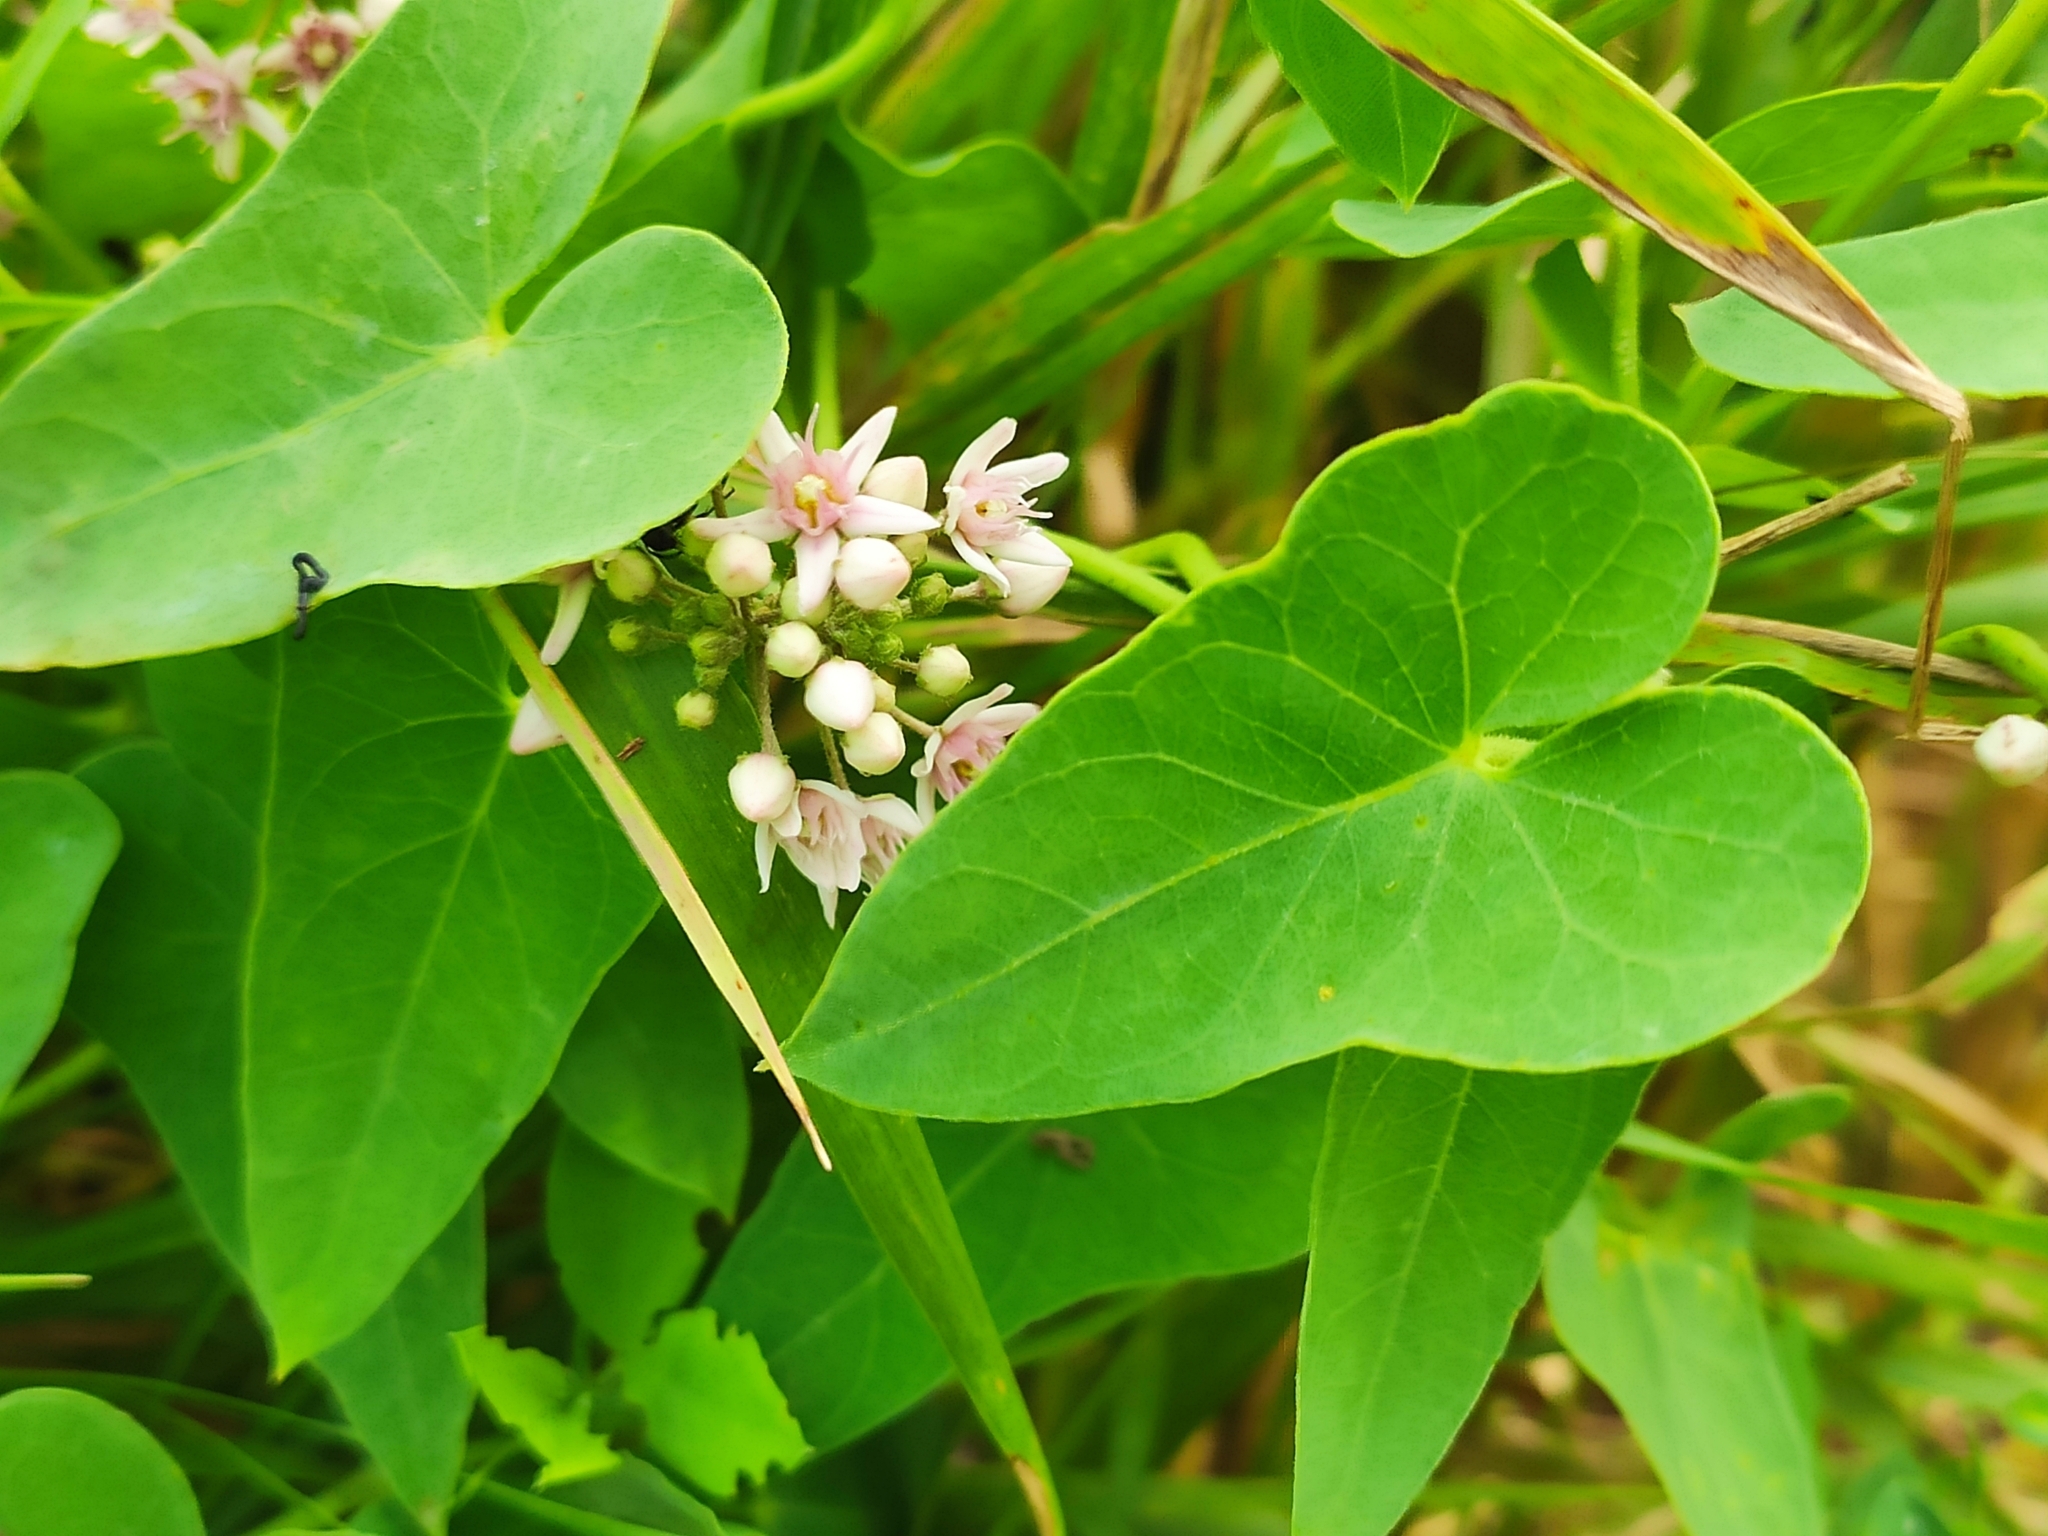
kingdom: Plantae
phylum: Tracheophyta
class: Magnoliopsida
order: Gentianales
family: Apocynaceae
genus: Cynanchum
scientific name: Cynanchum acutum
